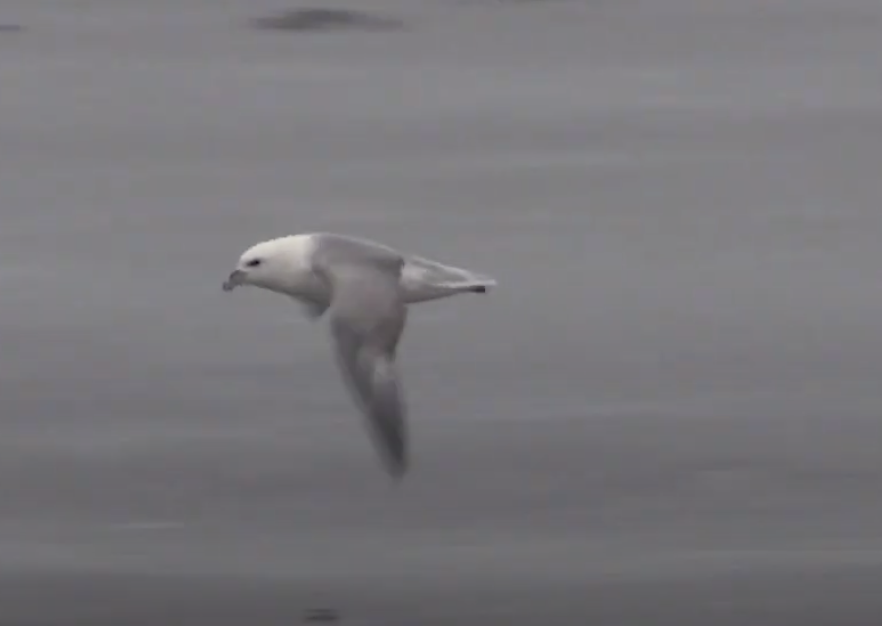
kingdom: Animalia
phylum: Chordata
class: Aves
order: Procellariiformes
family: Procellariidae
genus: Fulmarus
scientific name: Fulmarus glacialis
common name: Northern fulmar
